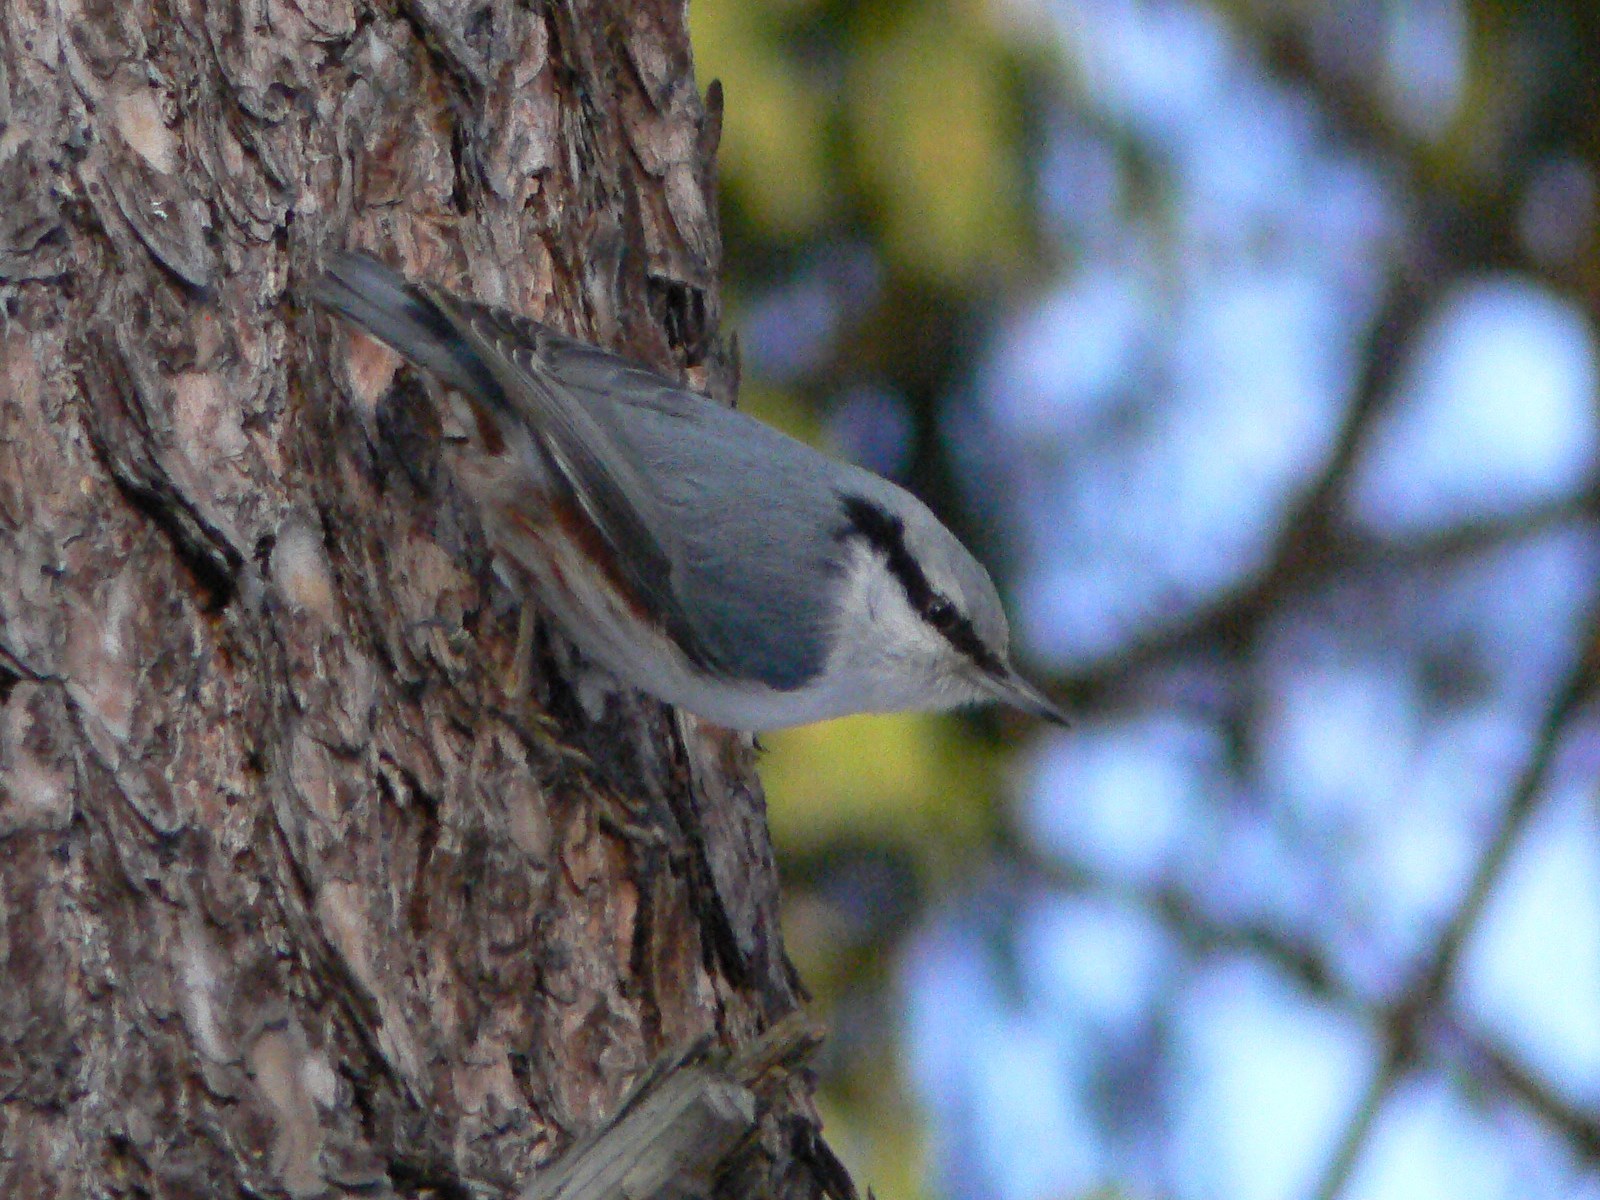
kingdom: Animalia
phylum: Chordata
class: Aves
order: Passeriformes
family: Sittidae
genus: Sitta
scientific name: Sitta europaea
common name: Eurasian nuthatch
